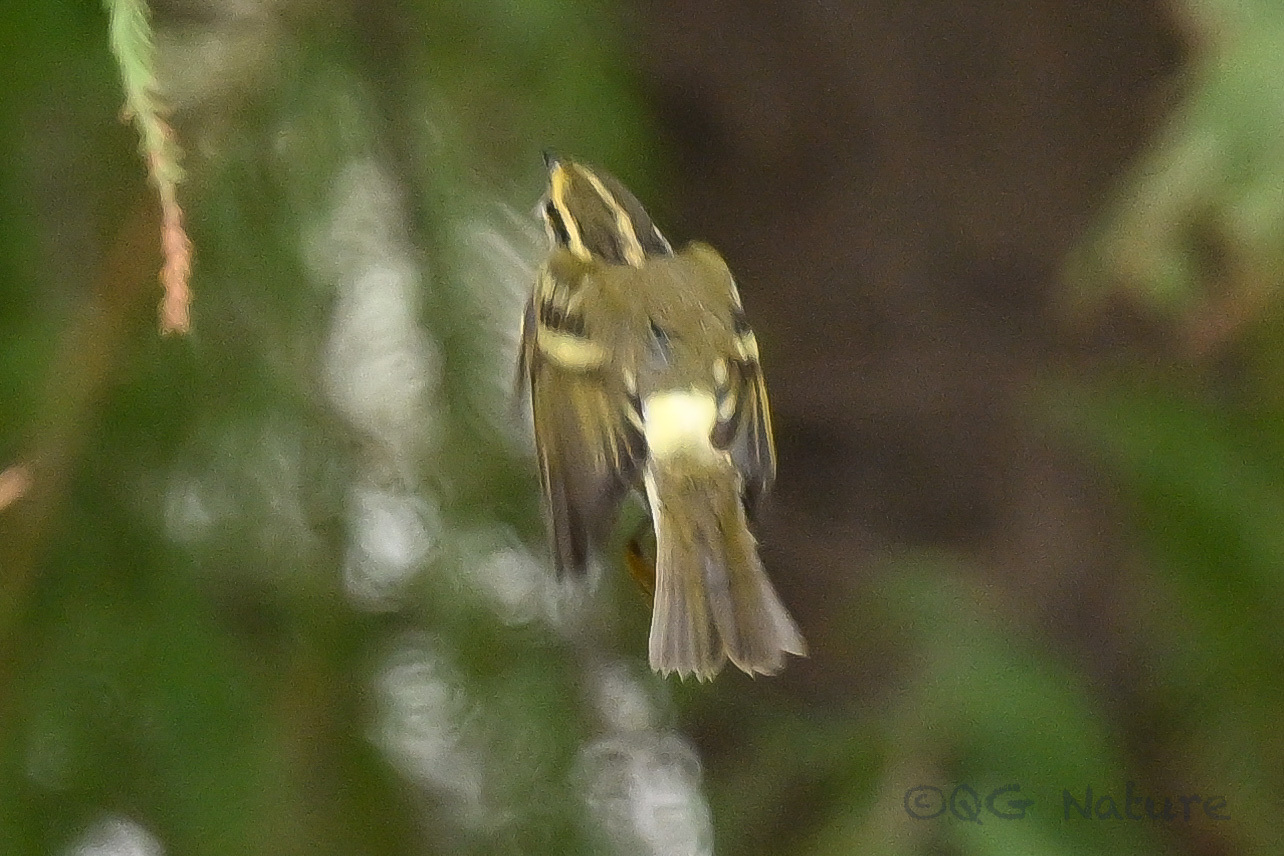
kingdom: Animalia
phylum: Chordata
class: Aves
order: Passeriformes
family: Phylloscopidae
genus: Phylloscopus
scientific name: Phylloscopus proregulus
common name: Pallas's leaf warbler
